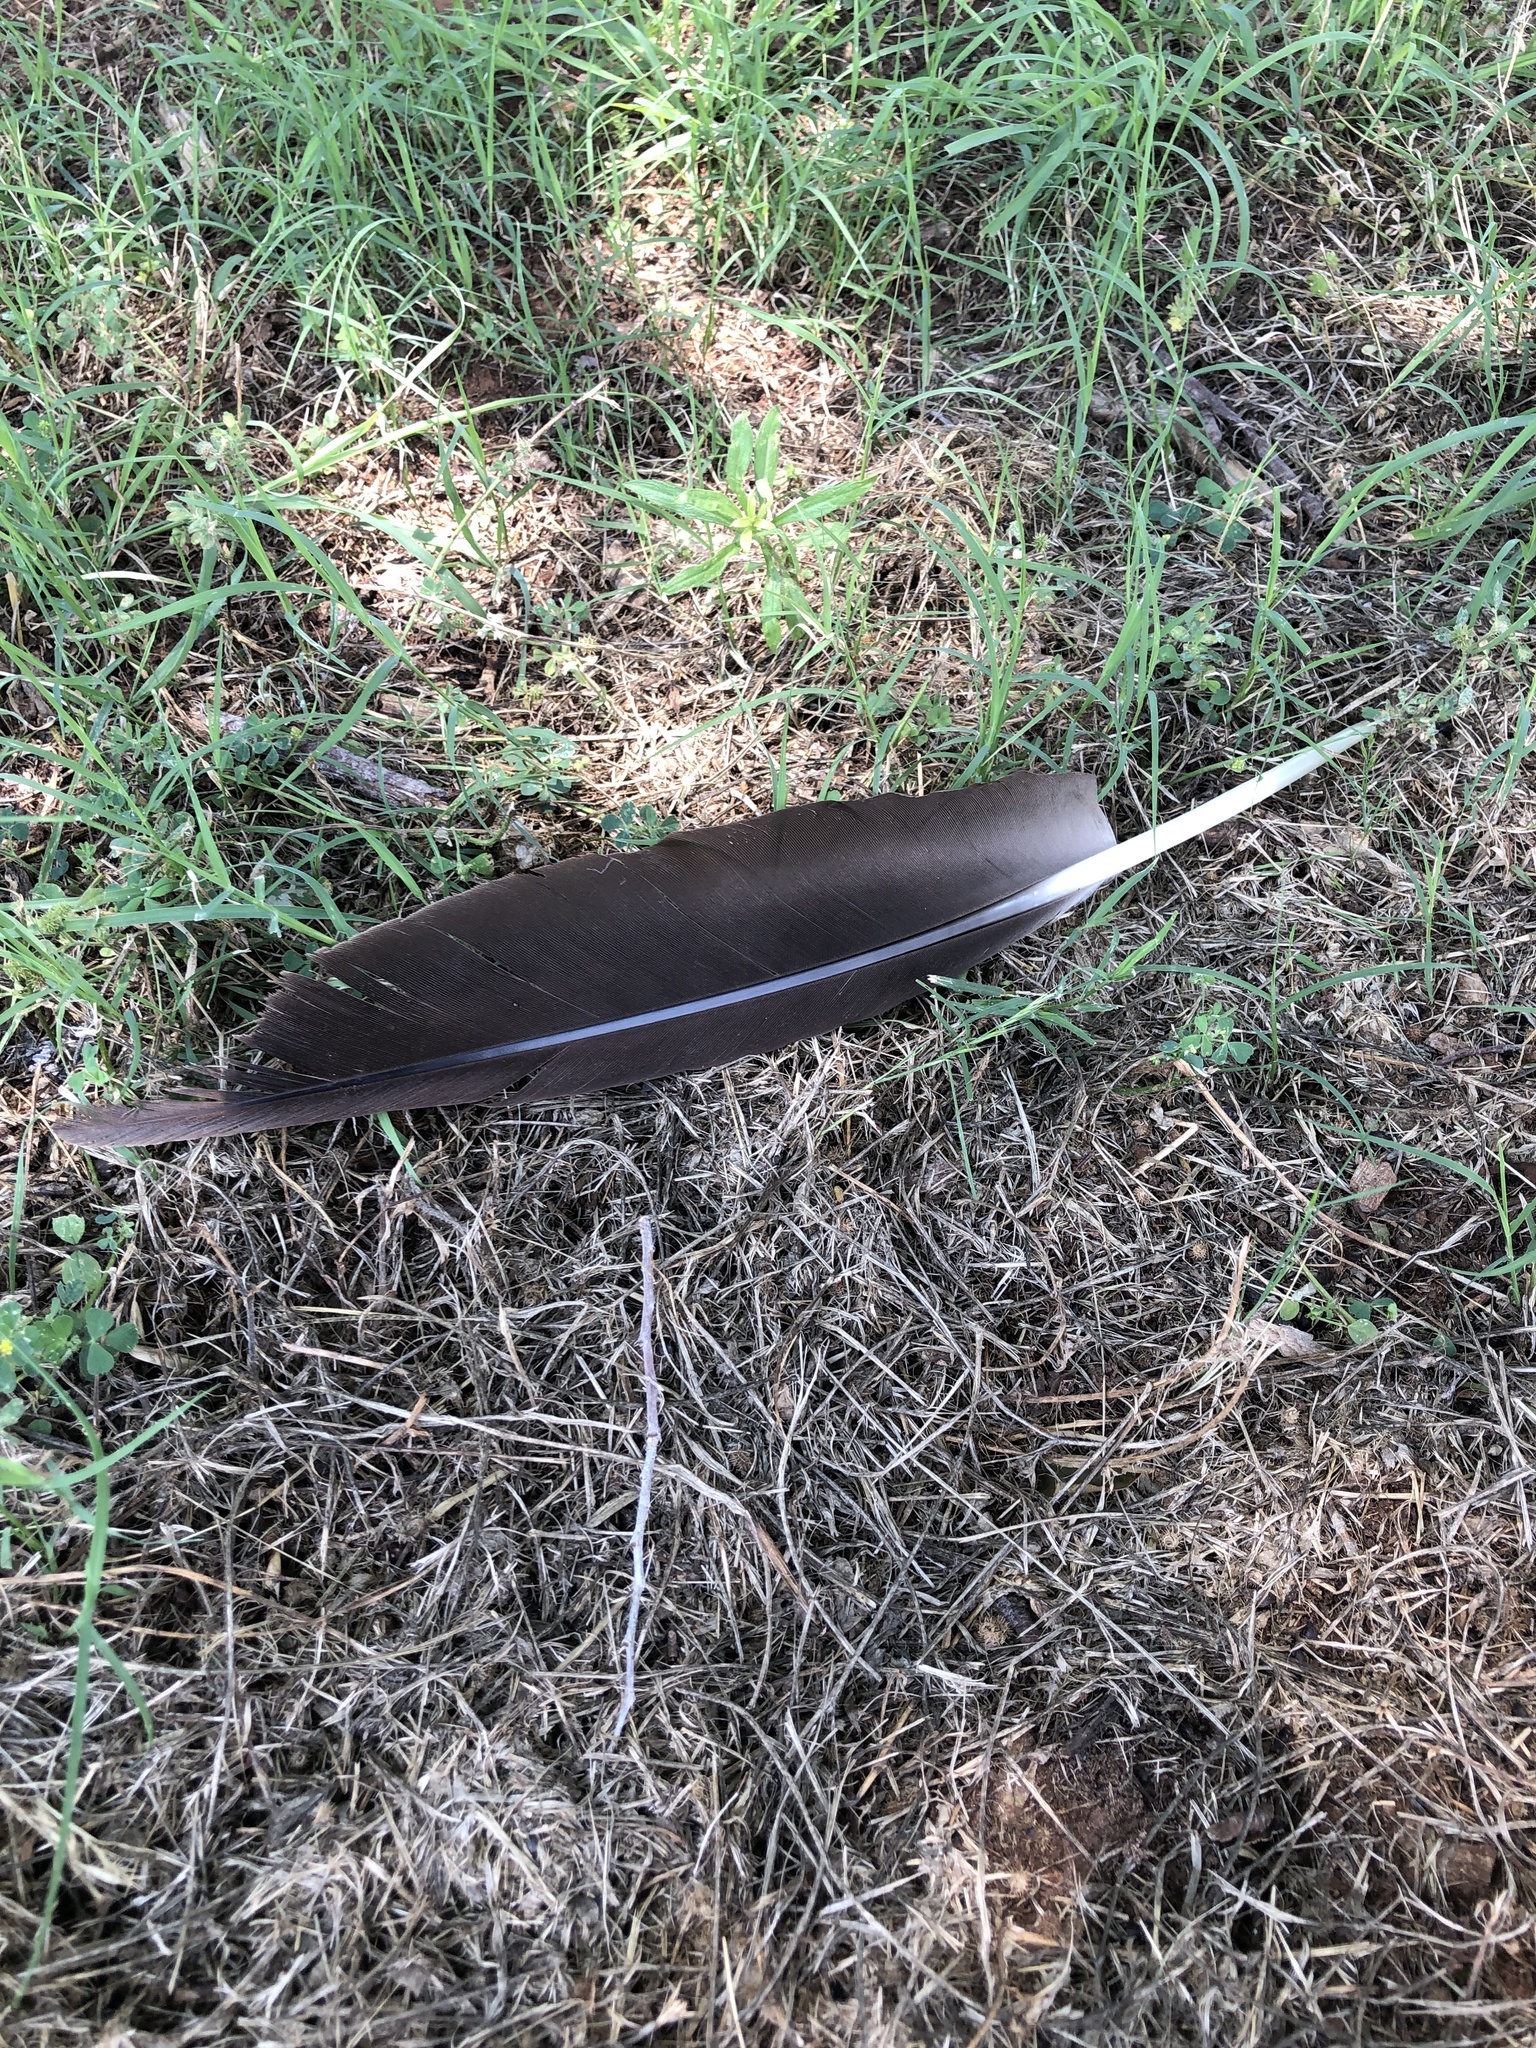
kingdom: Animalia
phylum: Chordata
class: Aves
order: Anseriformes
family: Anatidae
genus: Branta
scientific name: Branta canadensis
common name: Canada goose
